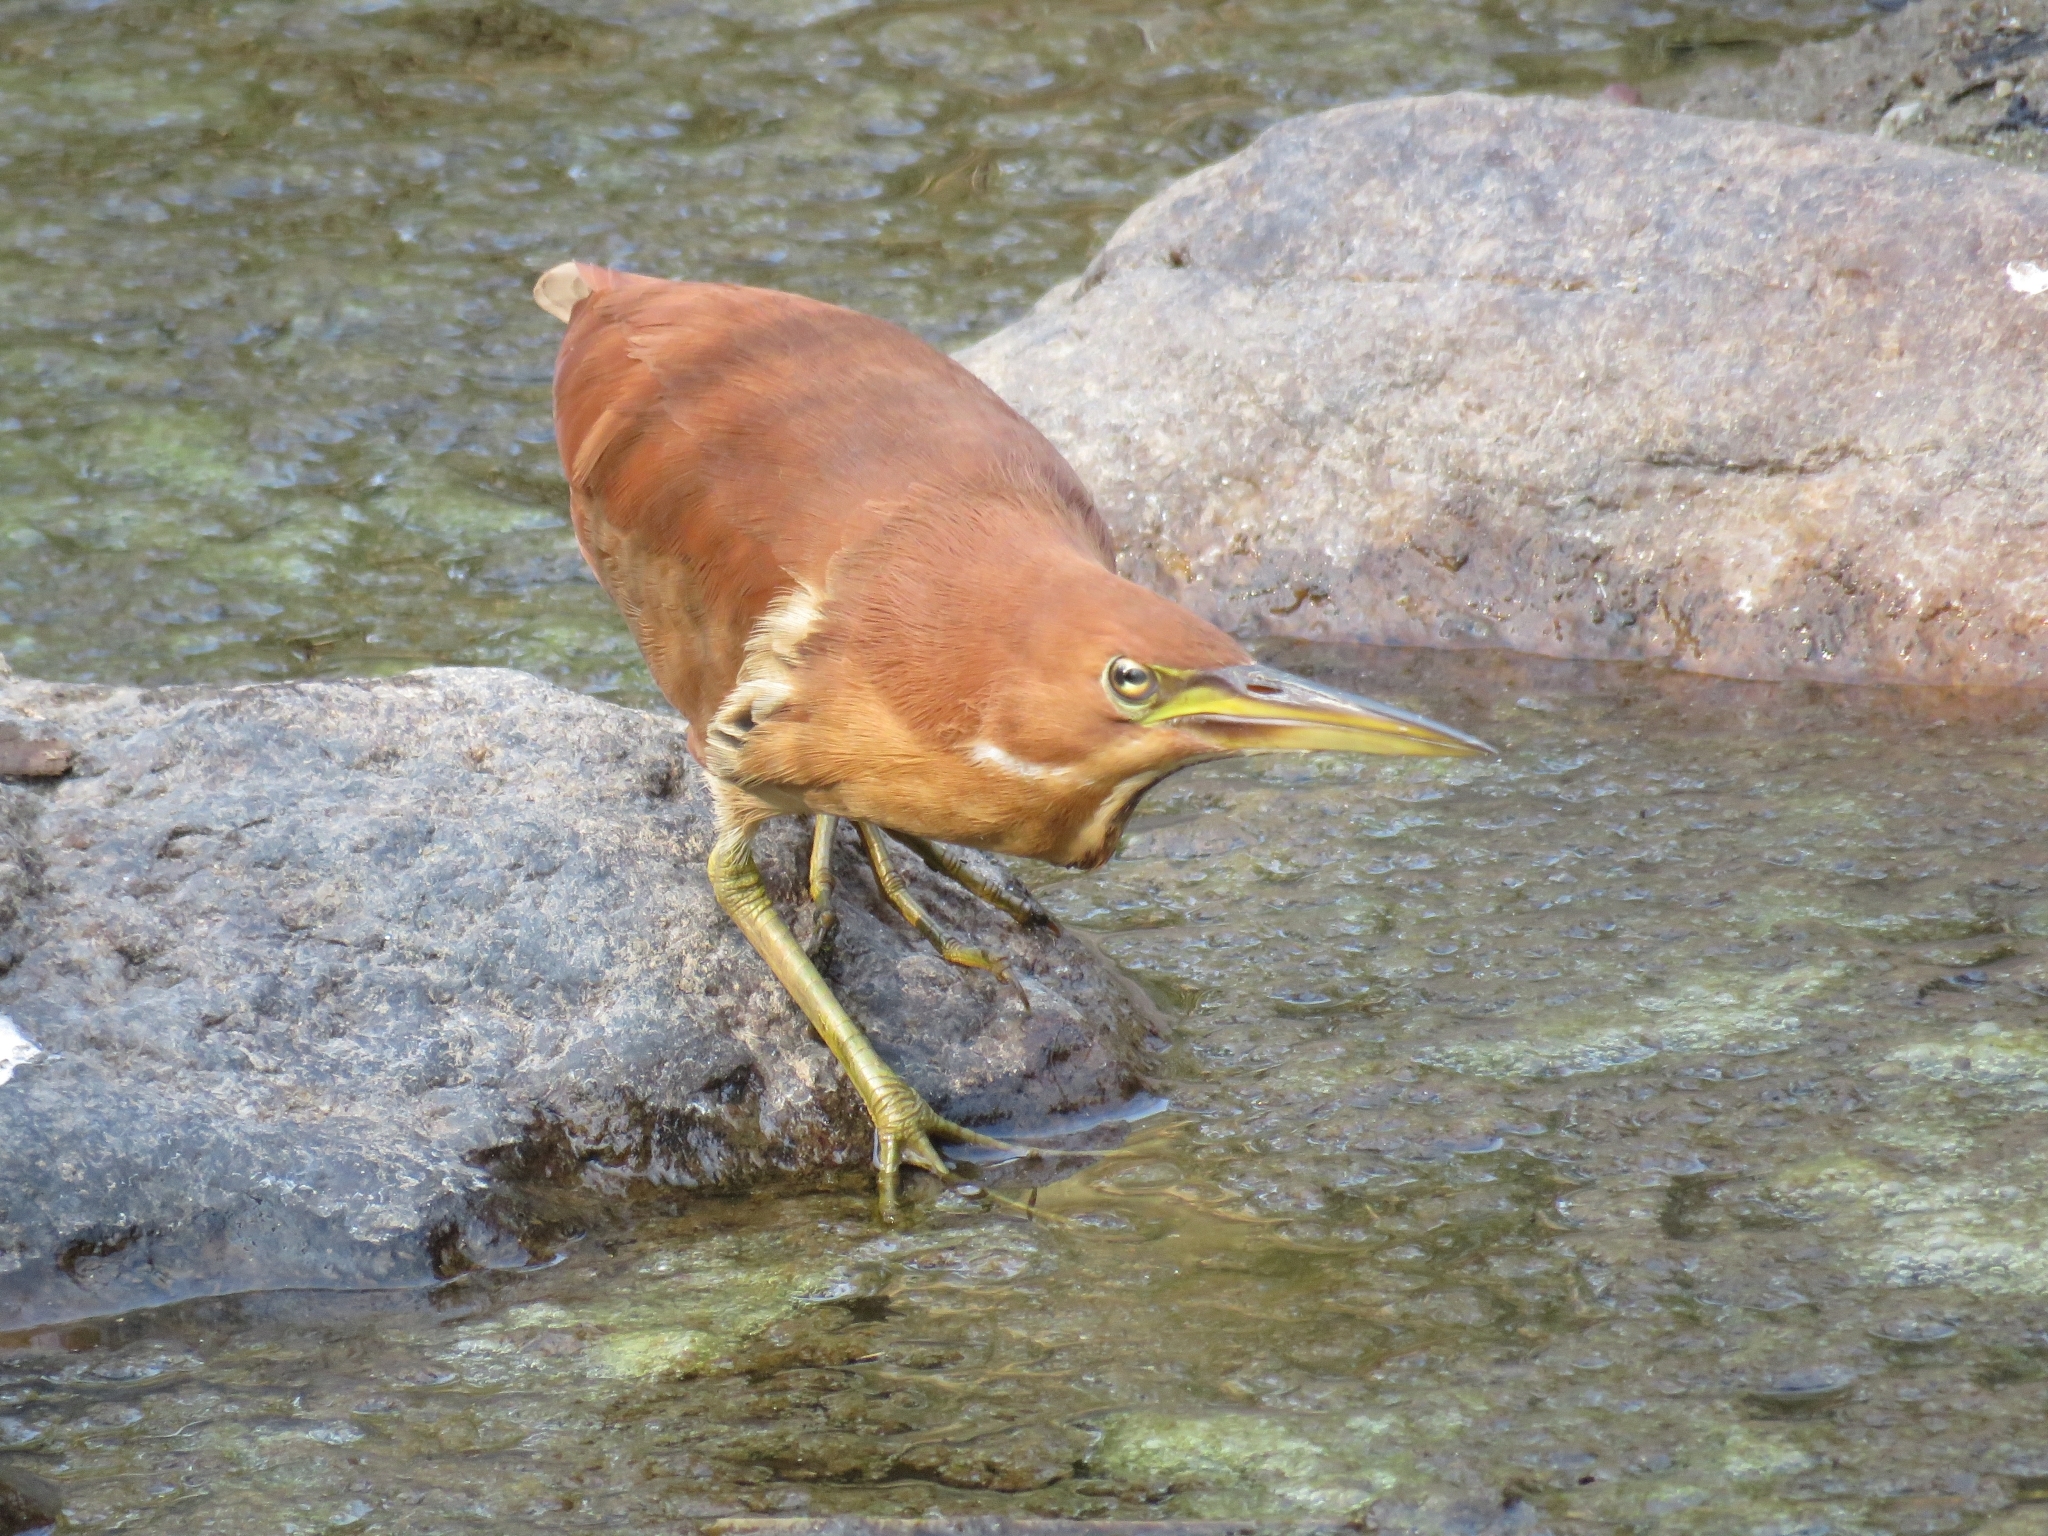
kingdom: Animalia
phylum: Chordata
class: Aves
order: Pelecaniformes
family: Ardeidae
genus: Ixobrychus
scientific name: Ixobrychus cinnamomeus
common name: Cinnamon bittern
